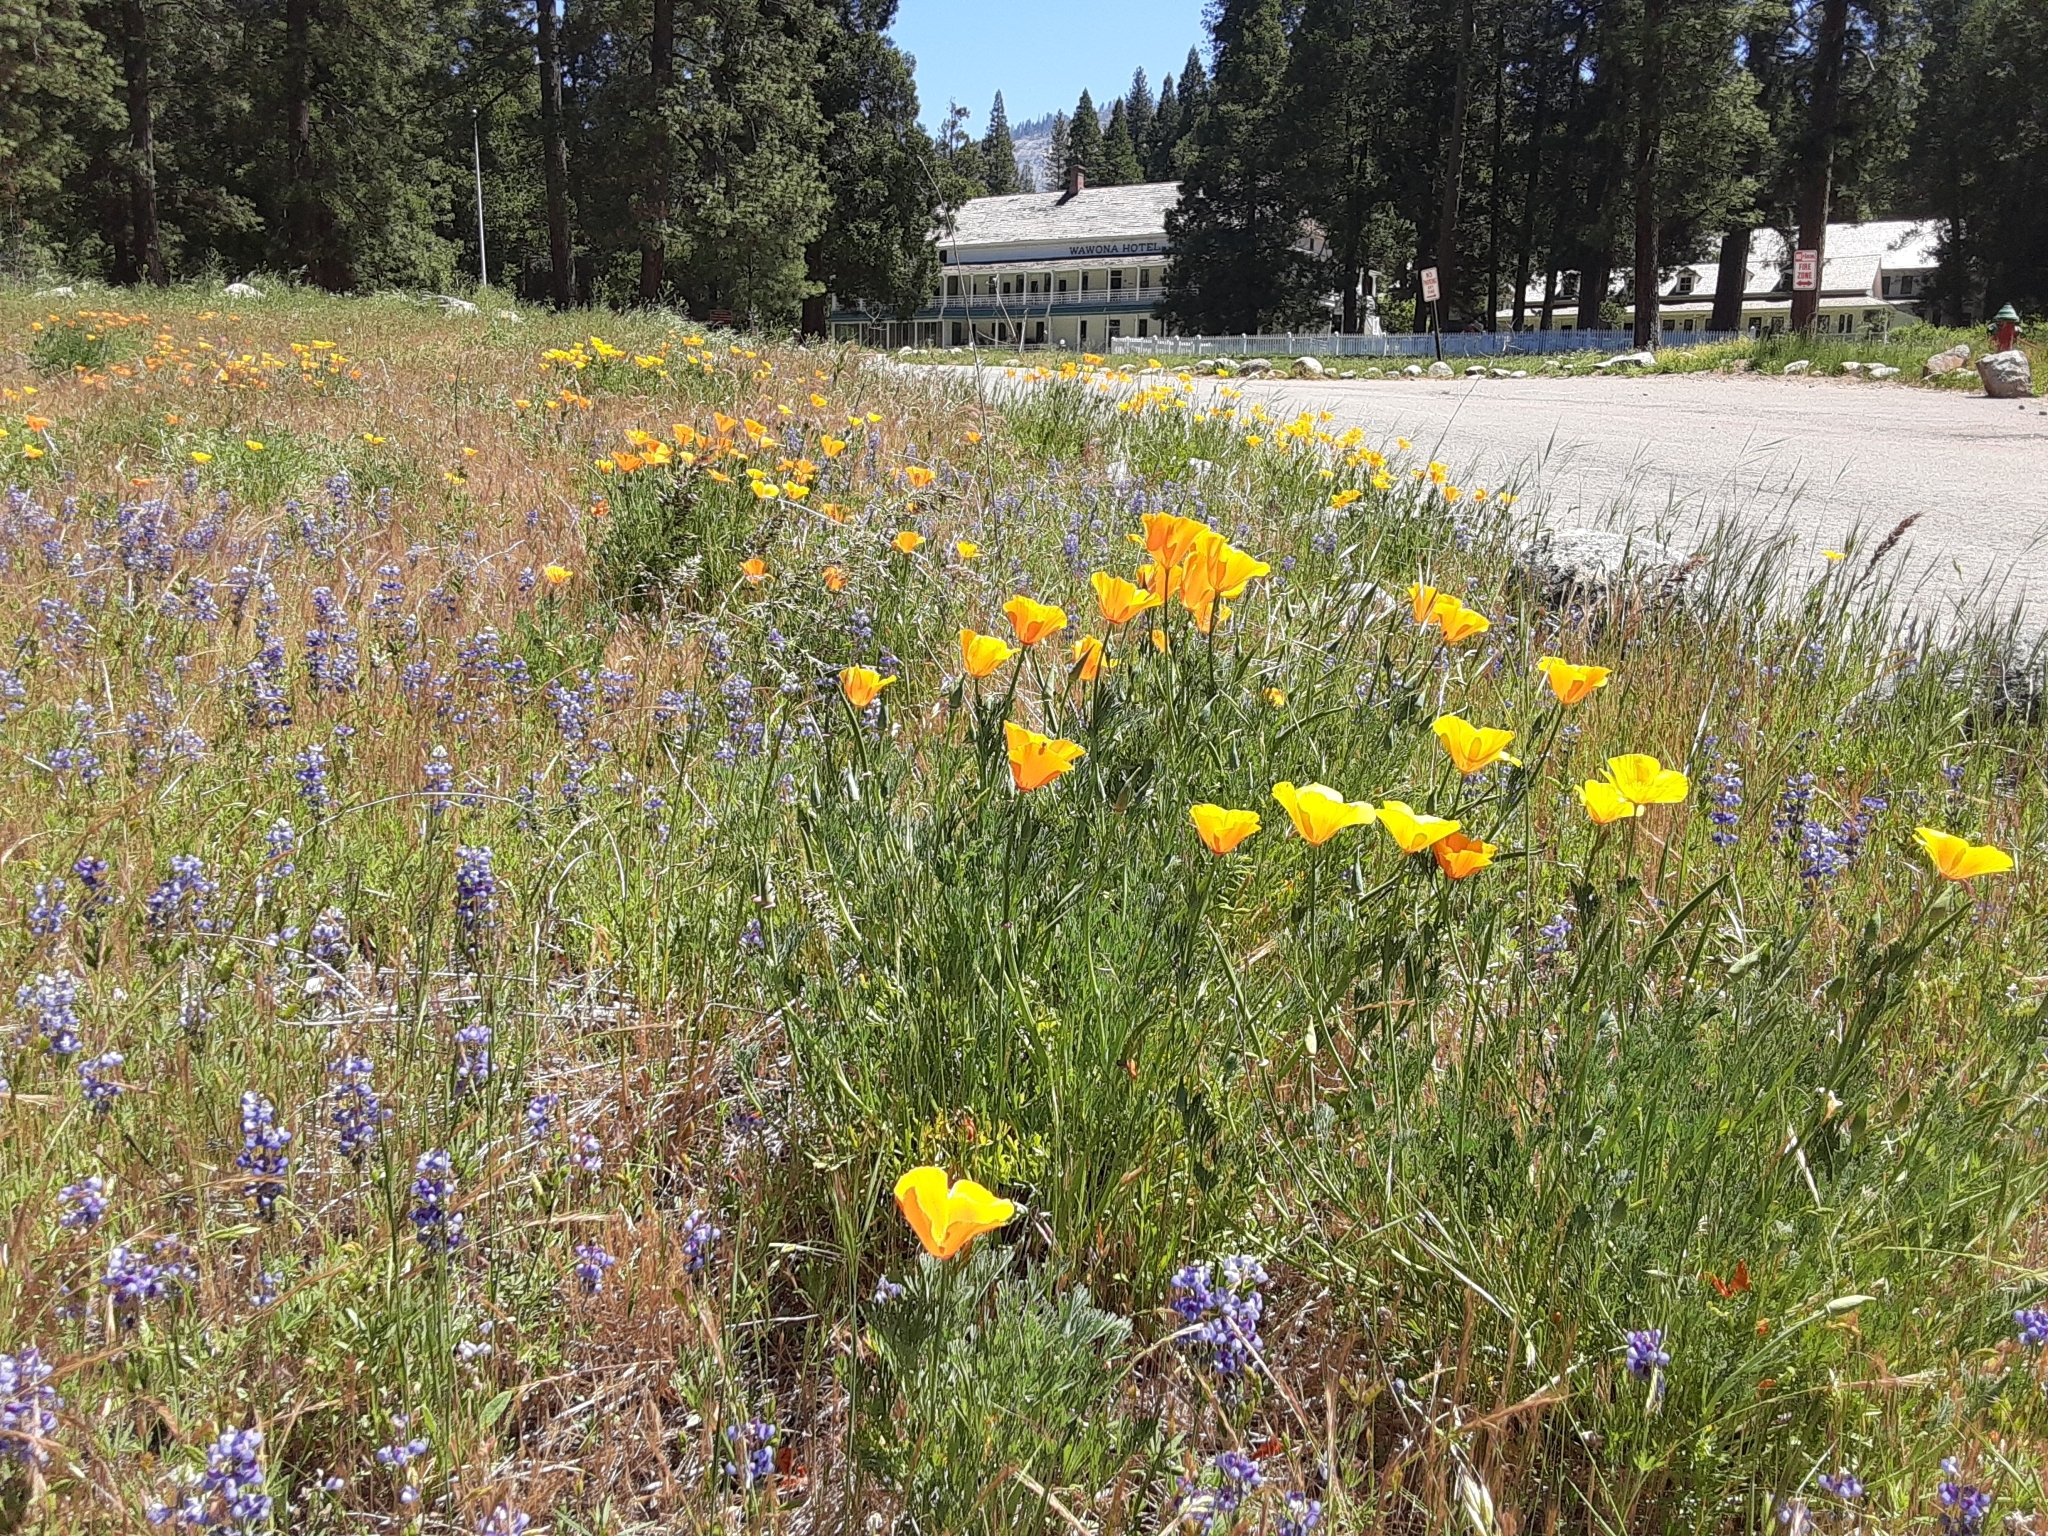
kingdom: Plantae
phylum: Tracheophyta
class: Magnoliopsida
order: Ranunculales
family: Papaveraceae
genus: Eschscholzia
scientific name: Eschscholzia californica
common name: California poppy
